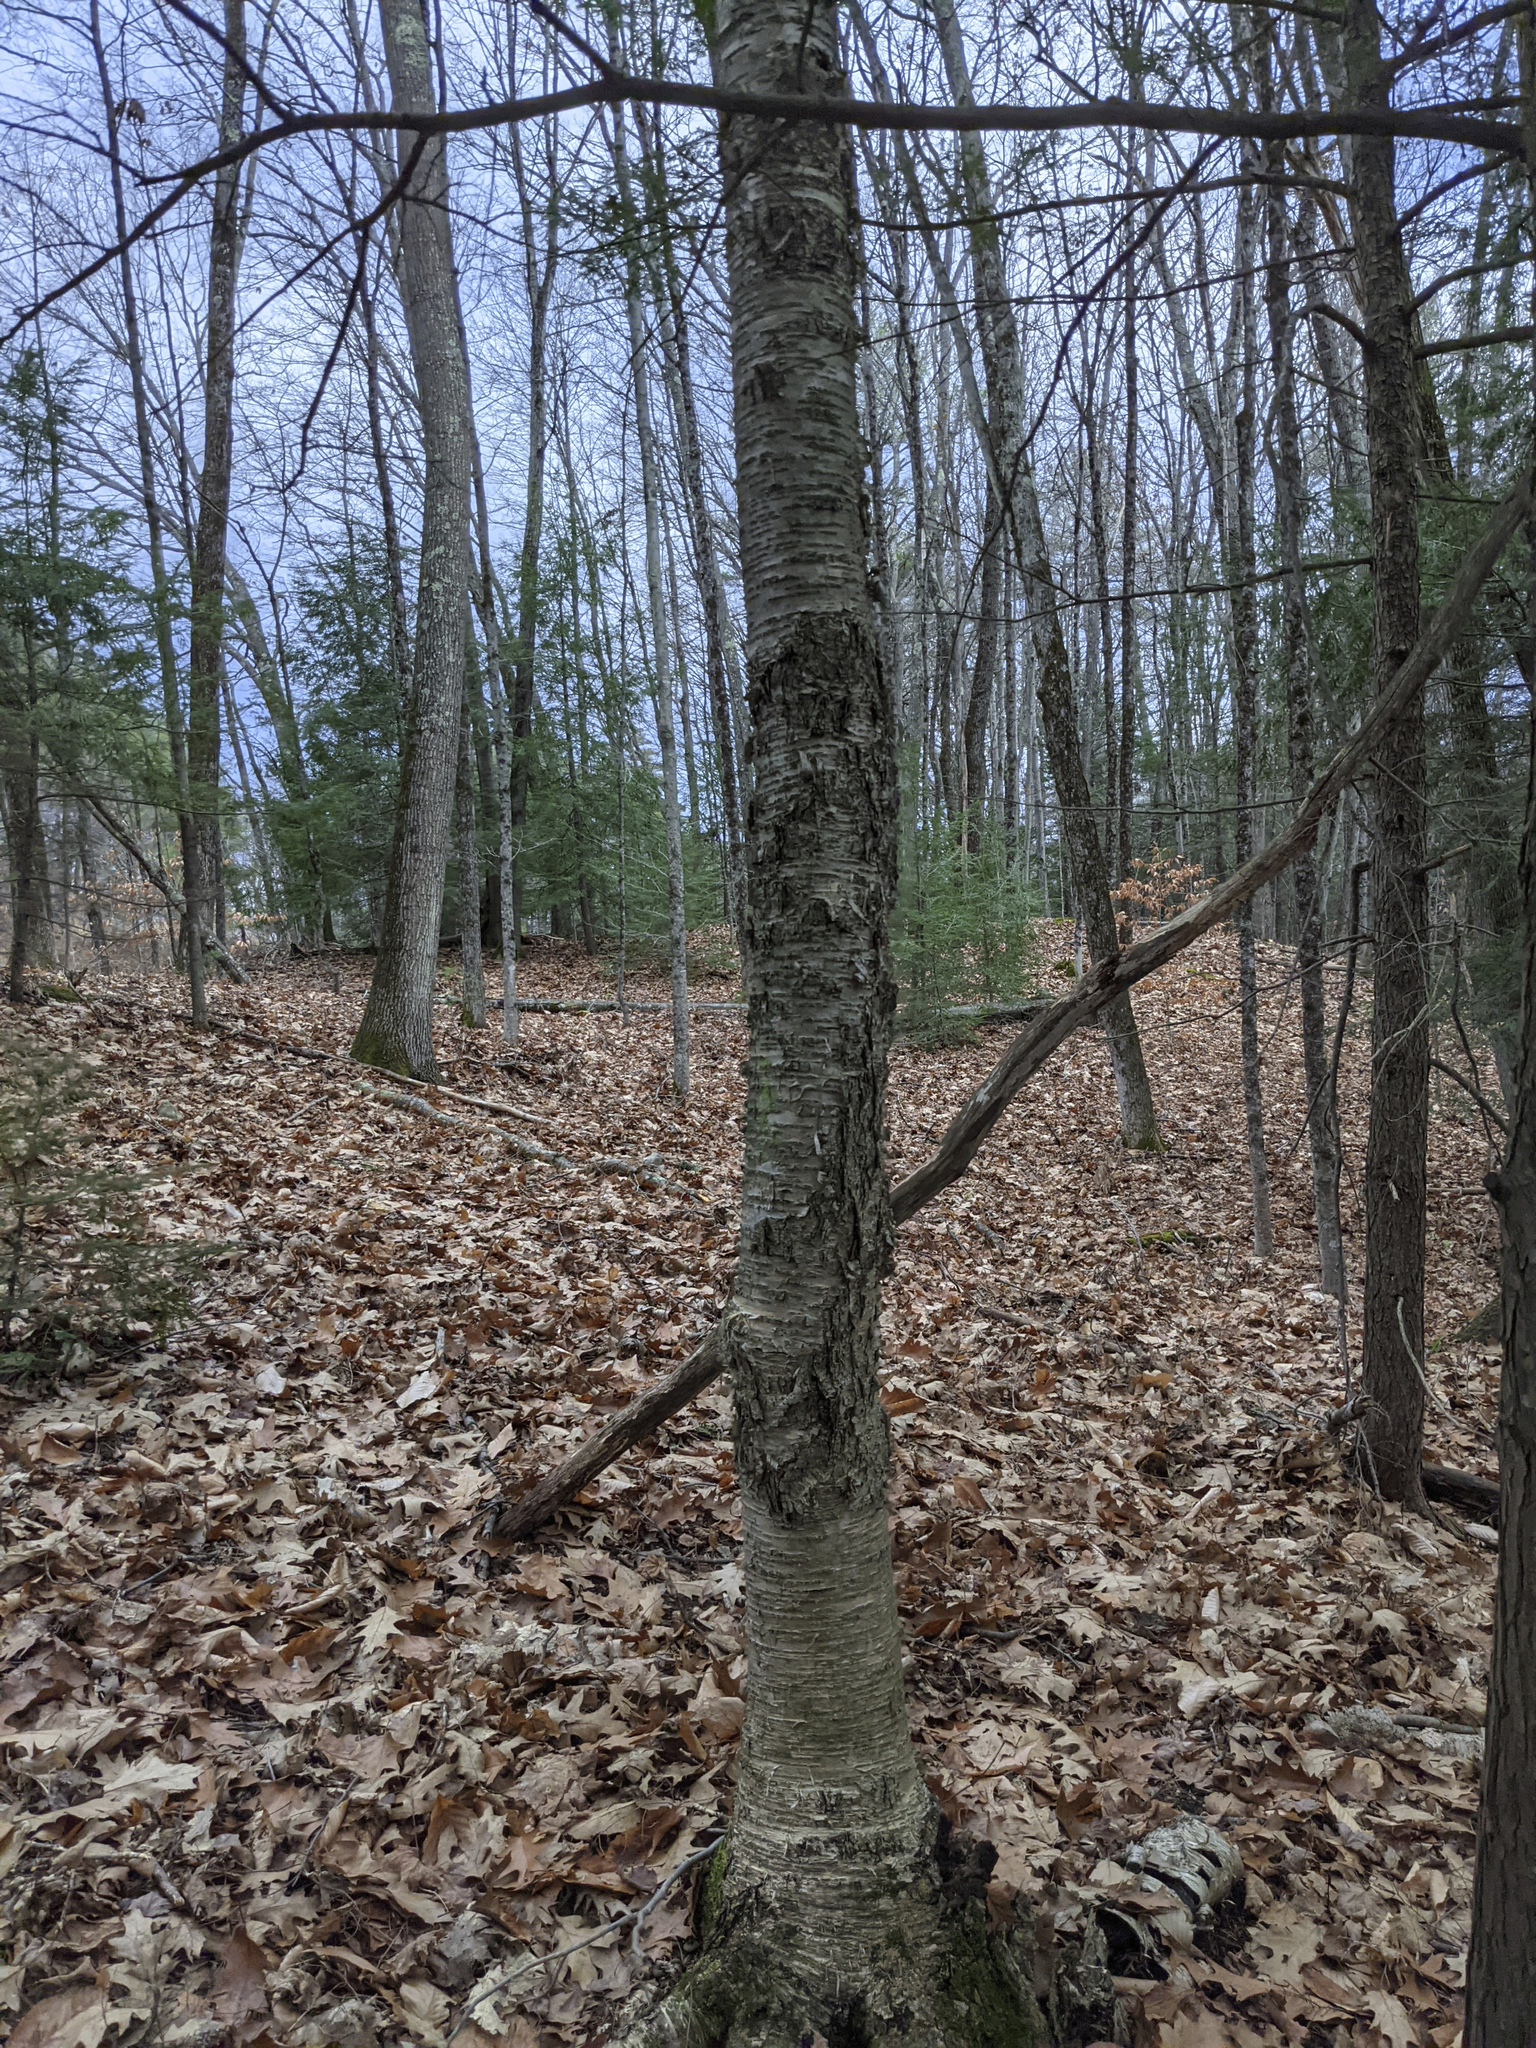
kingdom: Plantae
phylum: Tracheophyta
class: Magnoliopsida
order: Fagales
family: Betulaceae
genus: Betula
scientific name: Betula alleghaniensis
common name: Yellow birch
